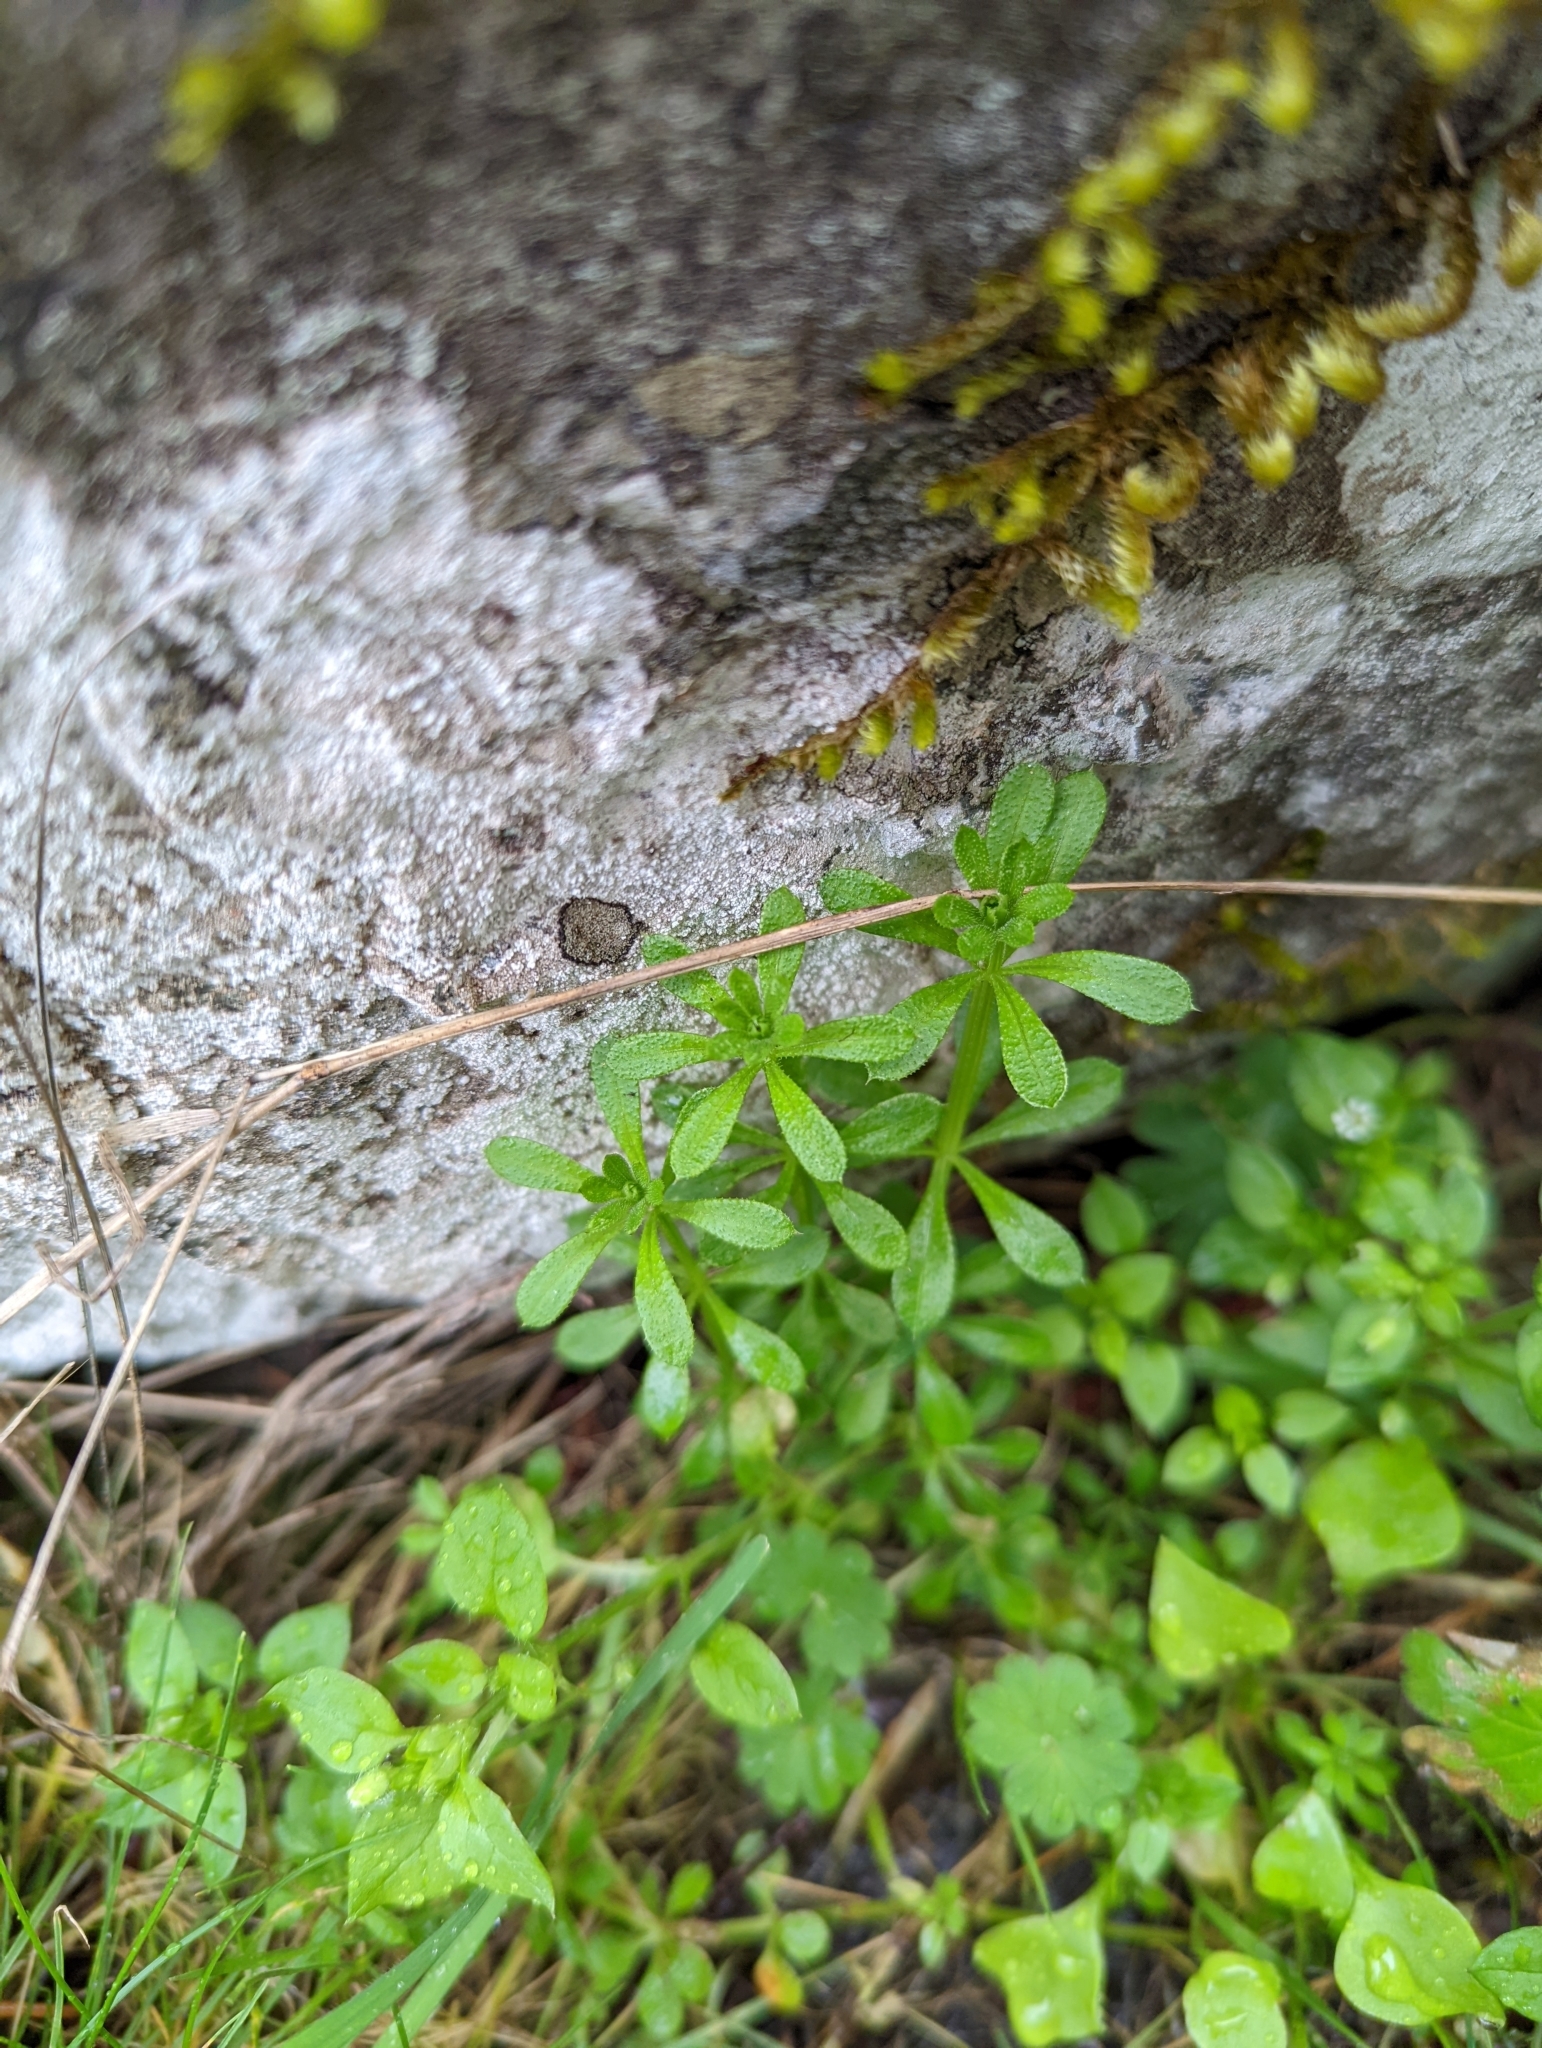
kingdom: Plantae
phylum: Tracheophyta
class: Magnoliopsida
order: Gentianales
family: Rubiaceae
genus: Galium
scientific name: Galium aparine
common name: Cleavers
